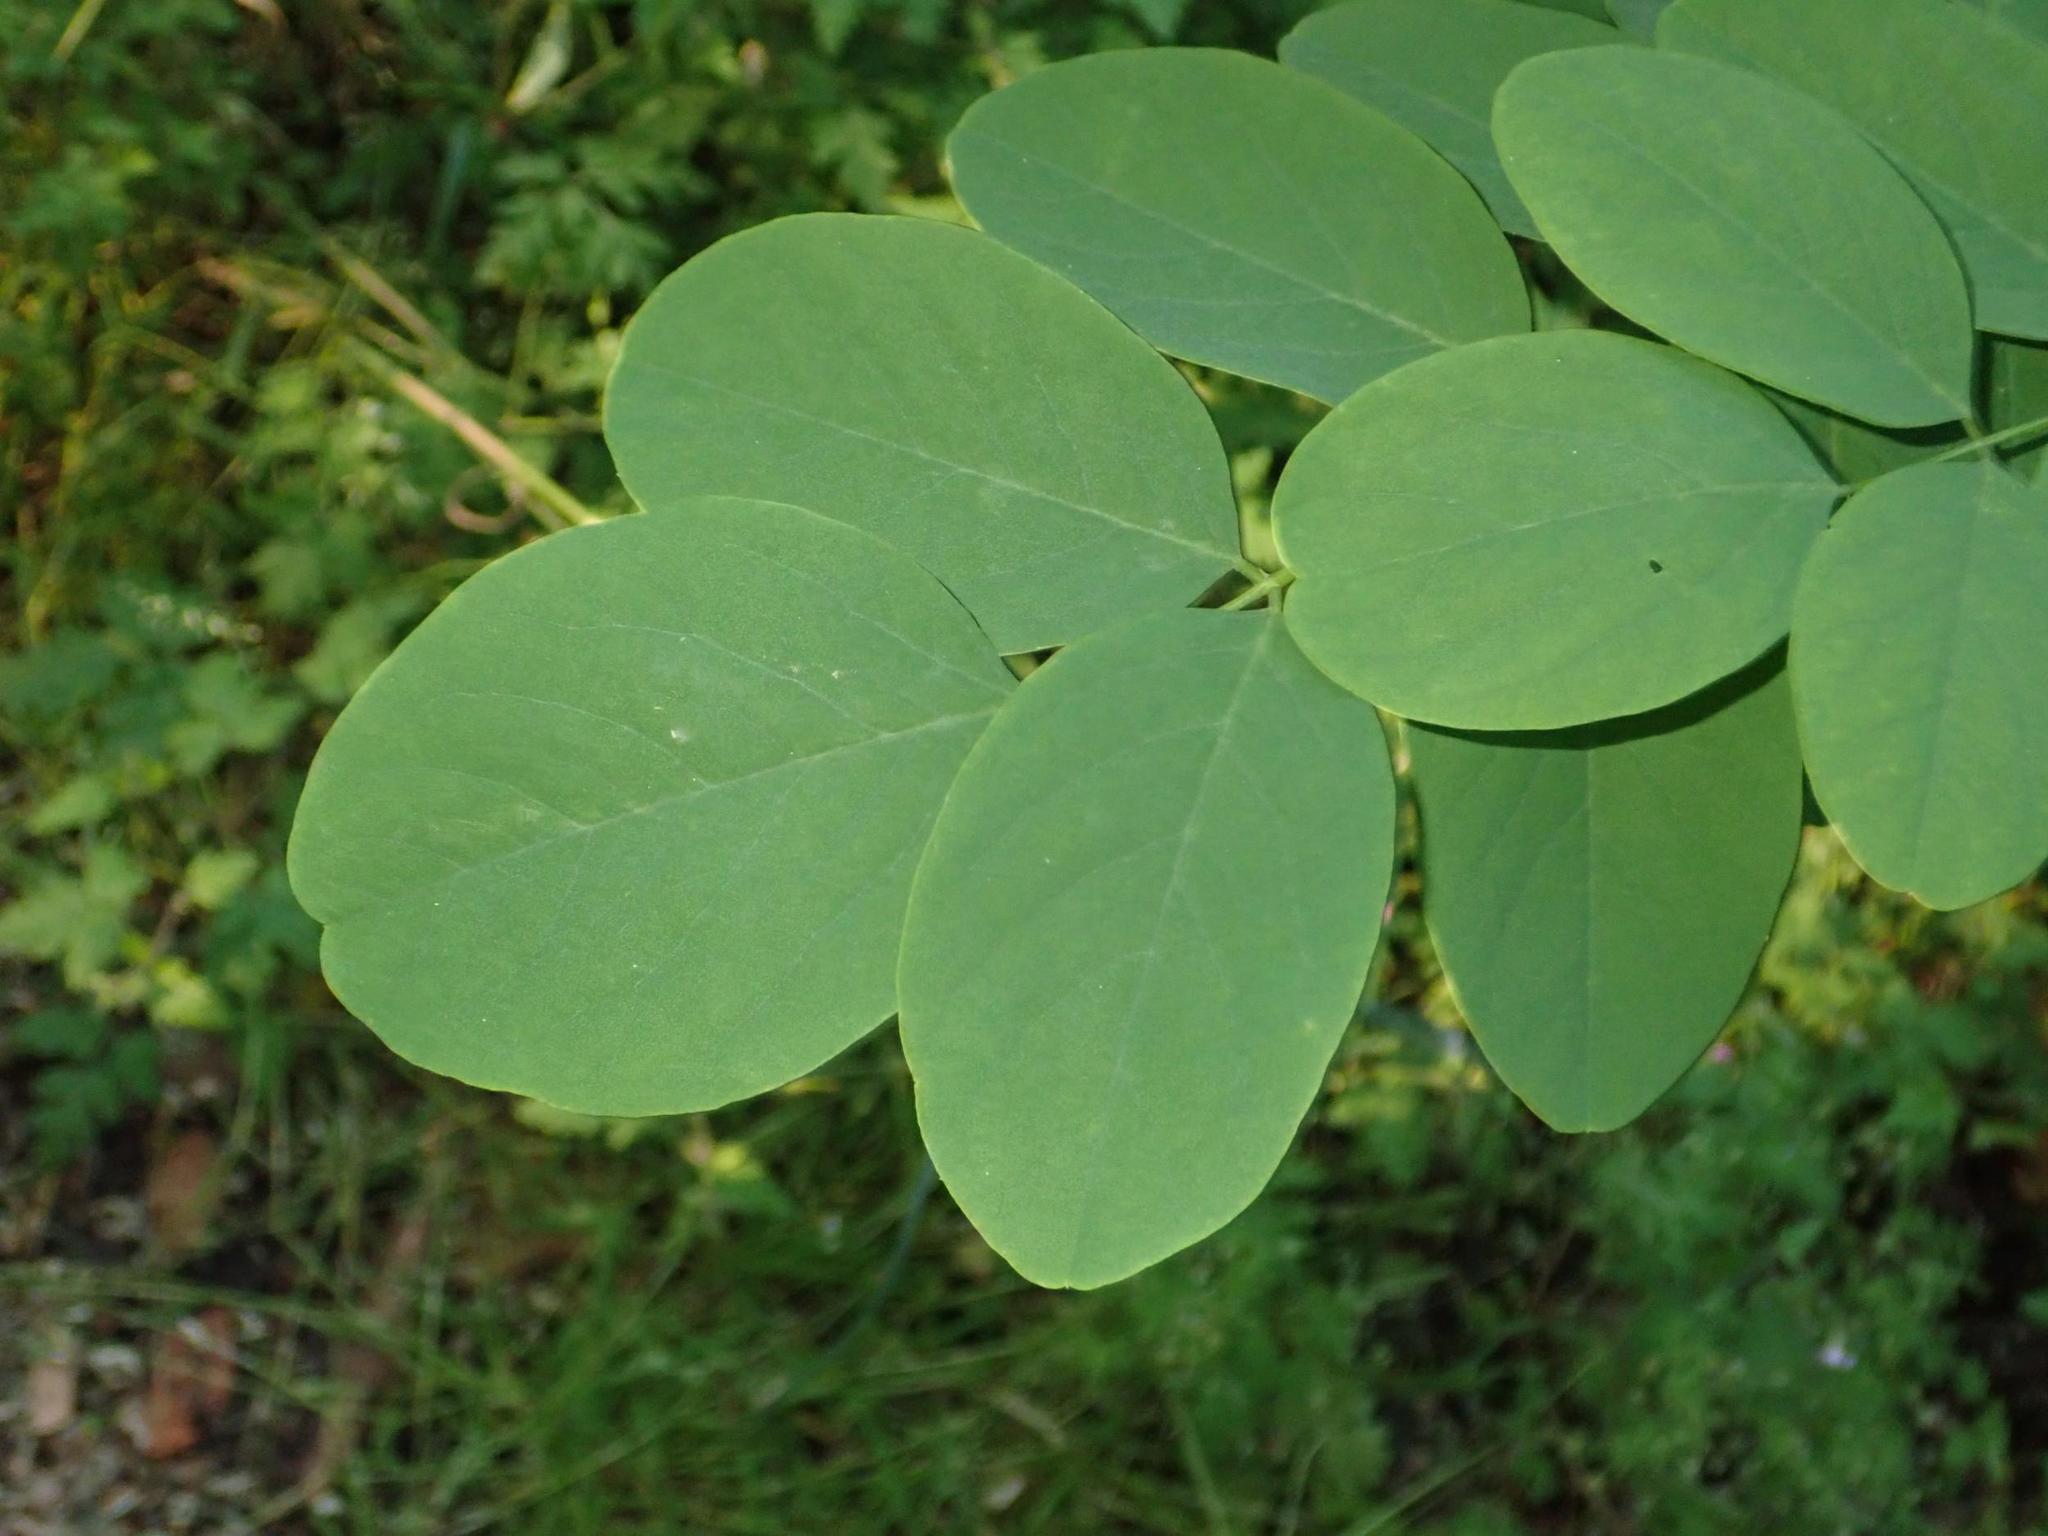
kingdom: Plantae
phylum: Tracheophyta
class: Magnoliopsida
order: Fabales
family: Fabaceae
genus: Robinia
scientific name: Robinia pseudoacacia
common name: Black locust
